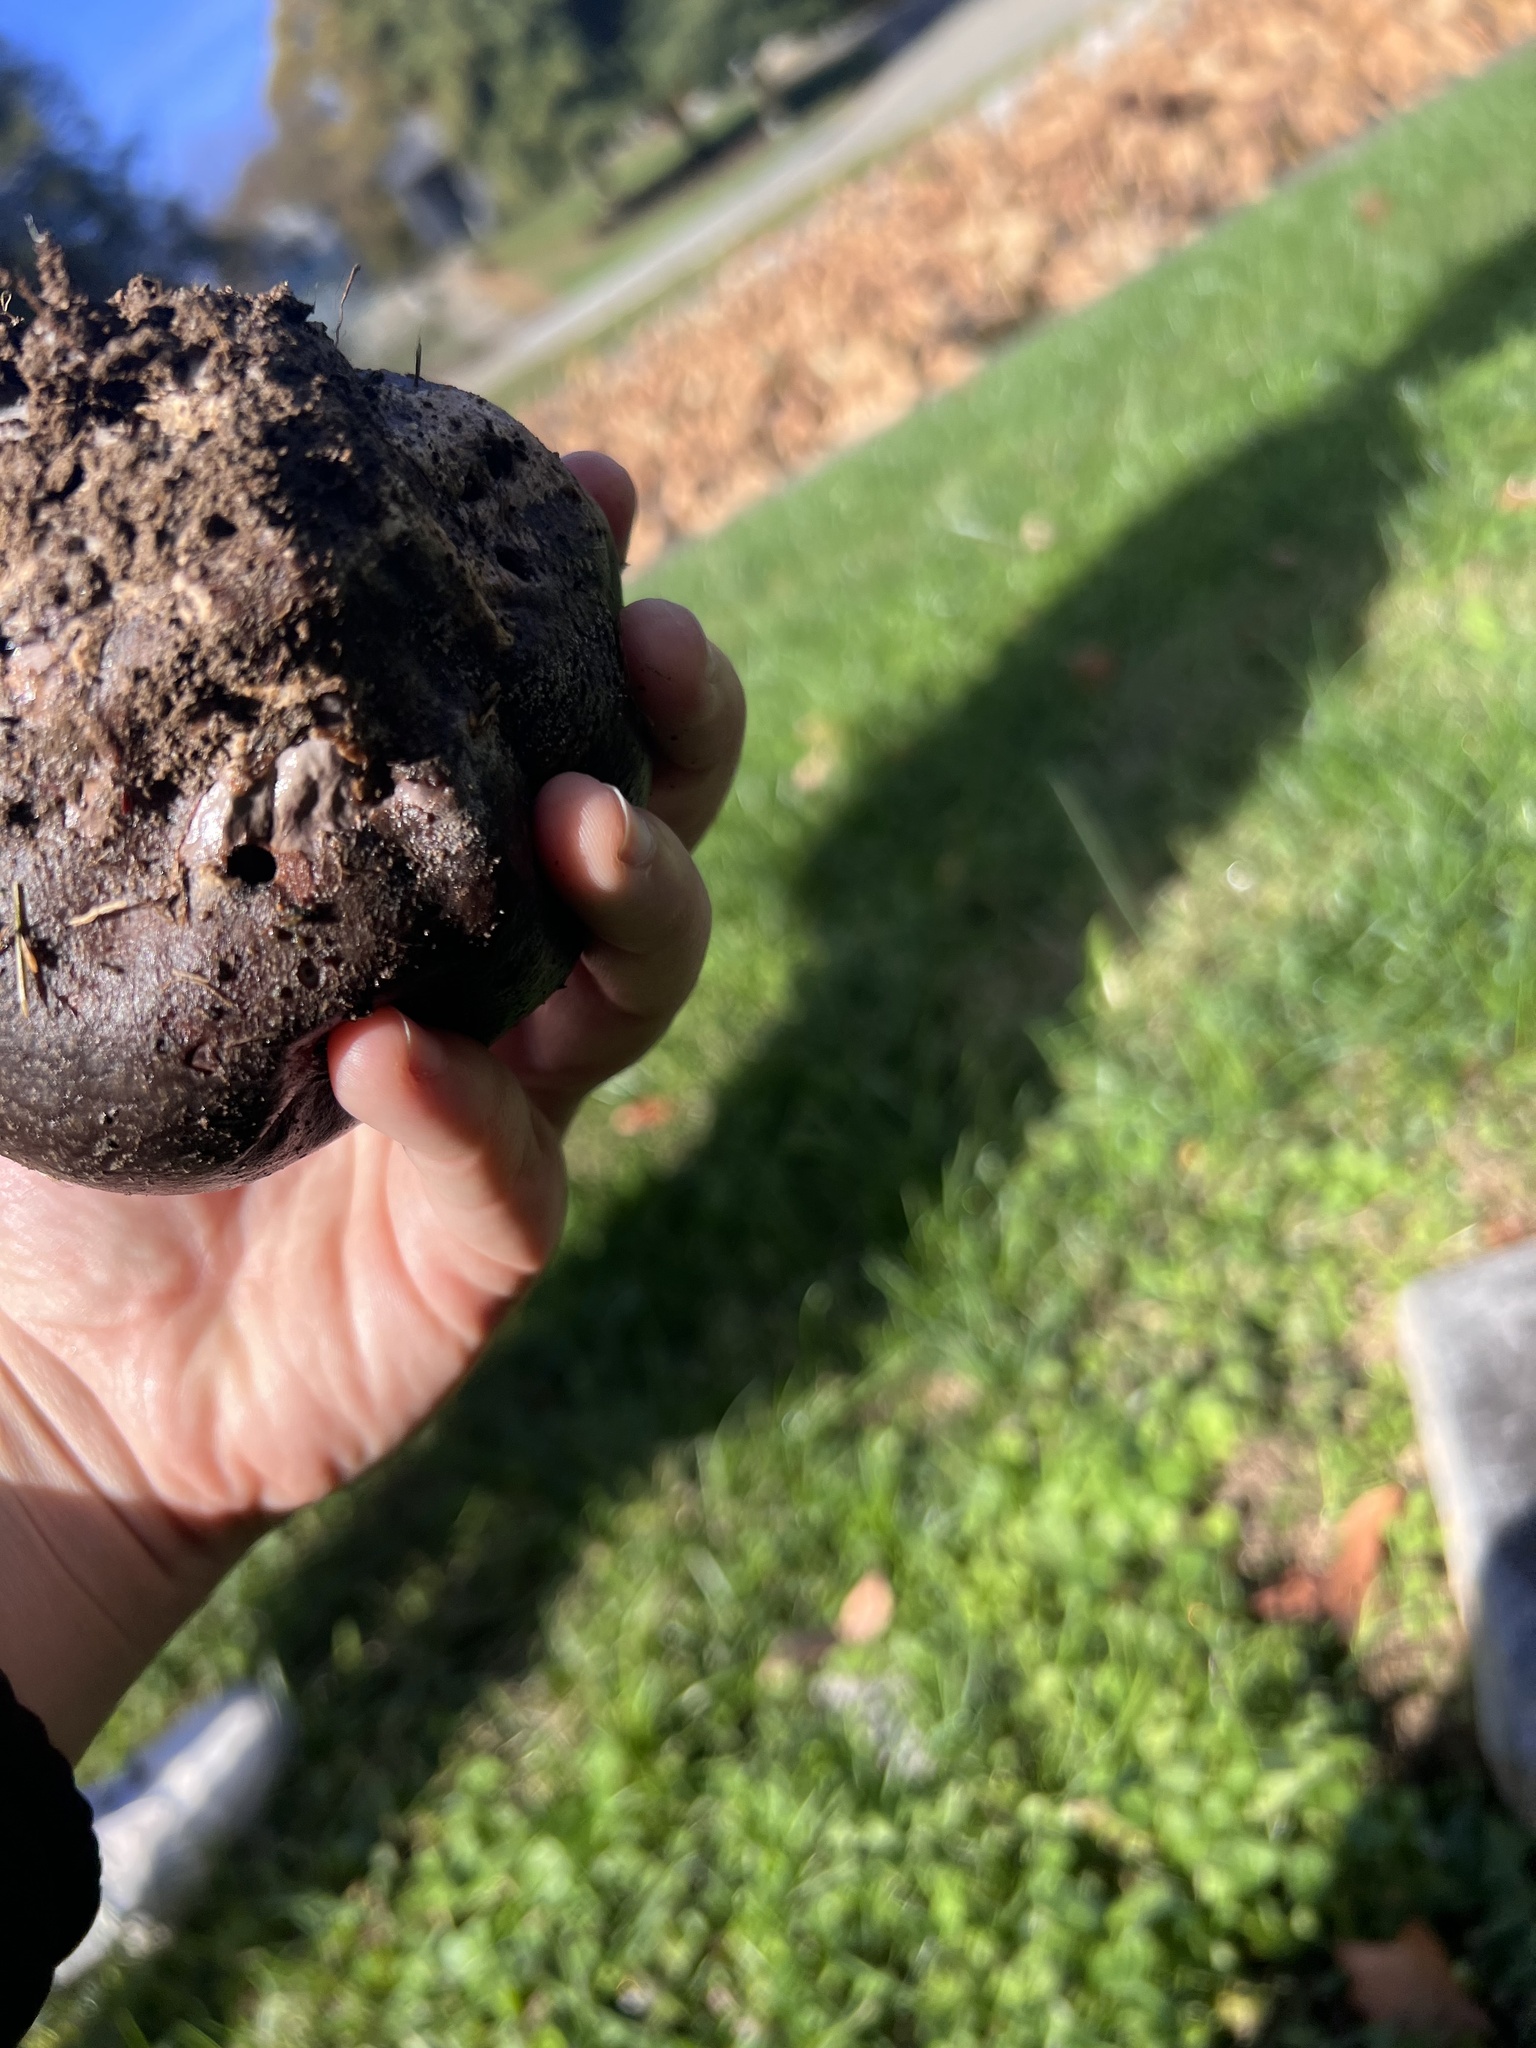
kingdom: Fungi
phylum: Basidiomycota
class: Agaricomycetes
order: Agaricales
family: Lycoperdaceae
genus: Calvatia
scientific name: Calvatia cyathiformis
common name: Purple-spored puffball
